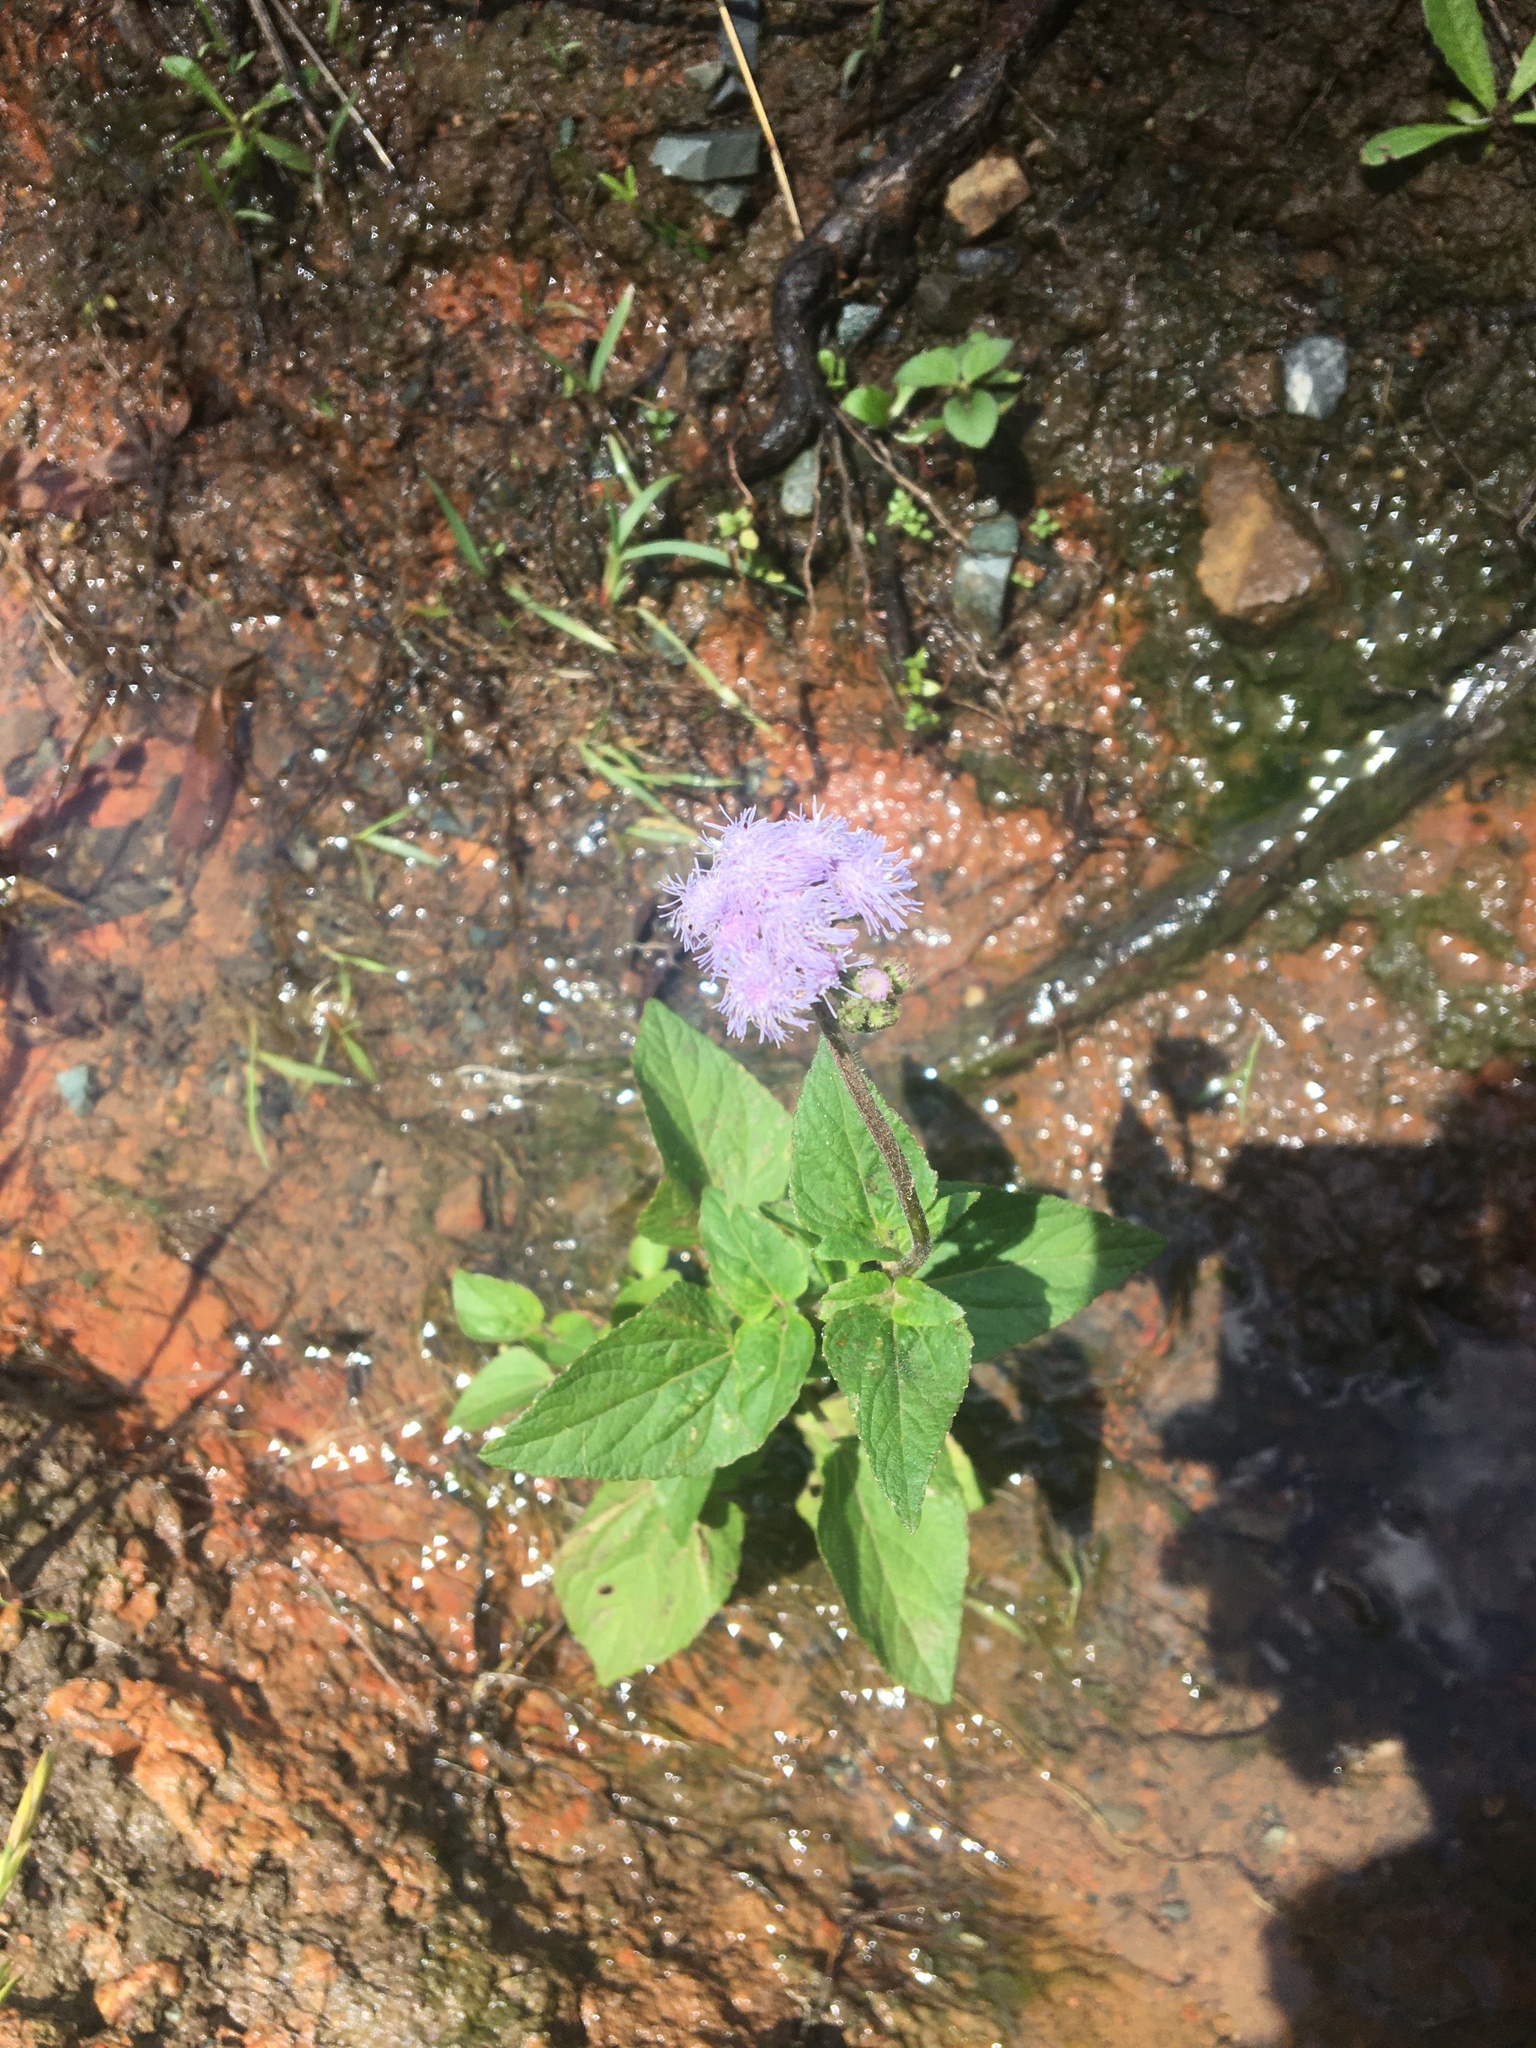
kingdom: Plantae
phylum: Tracheophyta
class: Magnoliopsida
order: Asterales
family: Asteraceae
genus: Ageratum
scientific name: Ageratum houstonianum
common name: Bluemink
